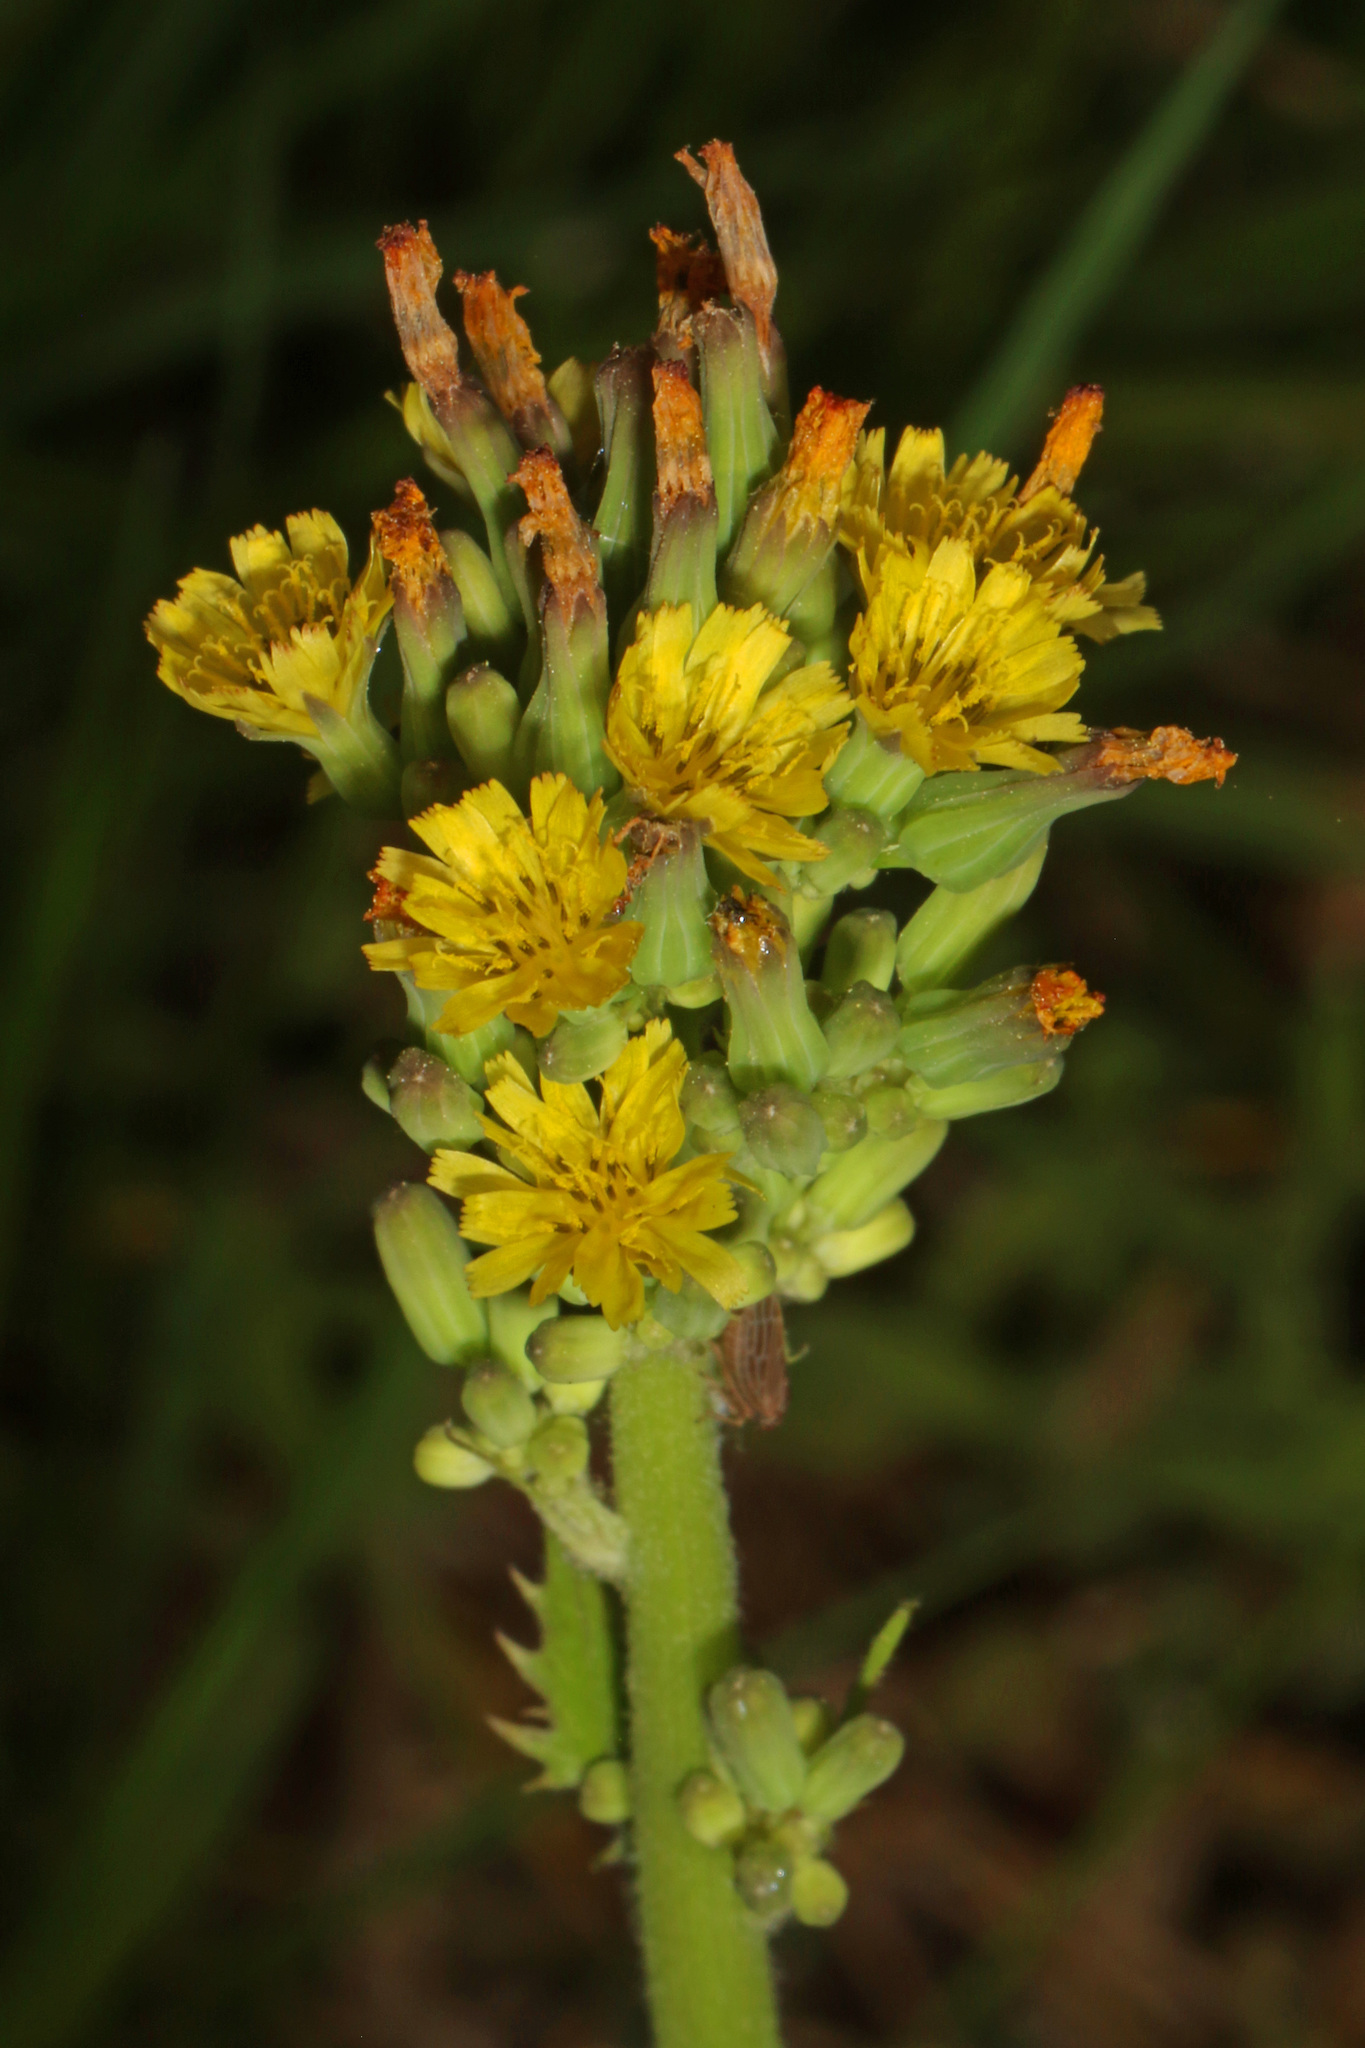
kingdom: Plantae
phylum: Tracheophyta
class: Magnoliopsida
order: Asterales
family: Asteraceae
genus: Youngia
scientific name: Youngia japonica
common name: Oriental false hawksbeard
